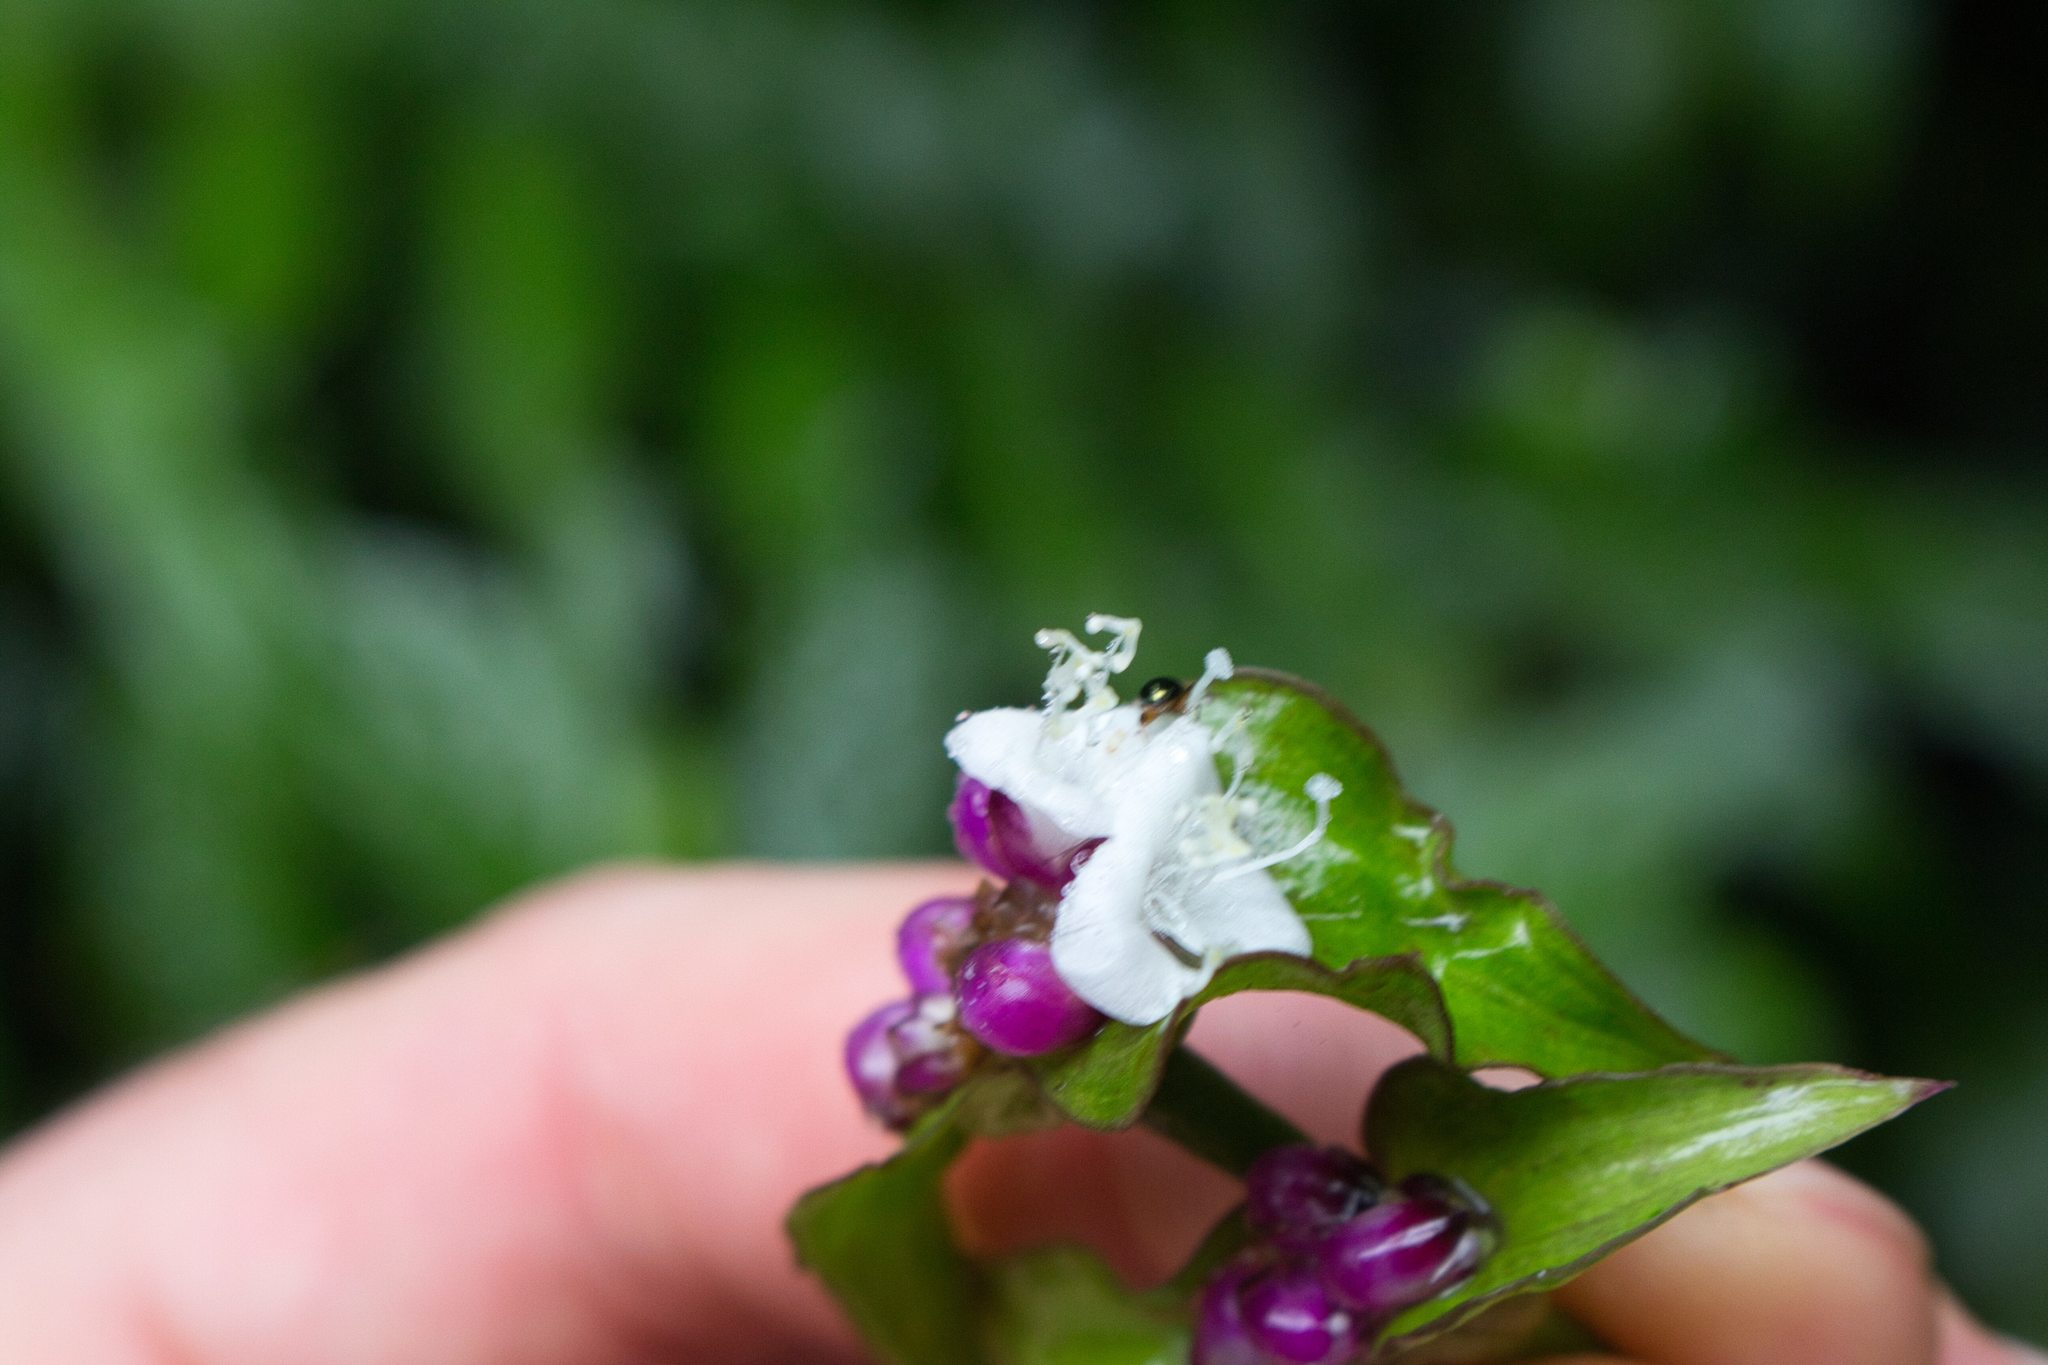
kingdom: Plantae
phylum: Tracheophyta
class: Liliopsida
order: Commelinales
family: Commelinaceae
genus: Tradescantia
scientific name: Tradescantia zanonia
